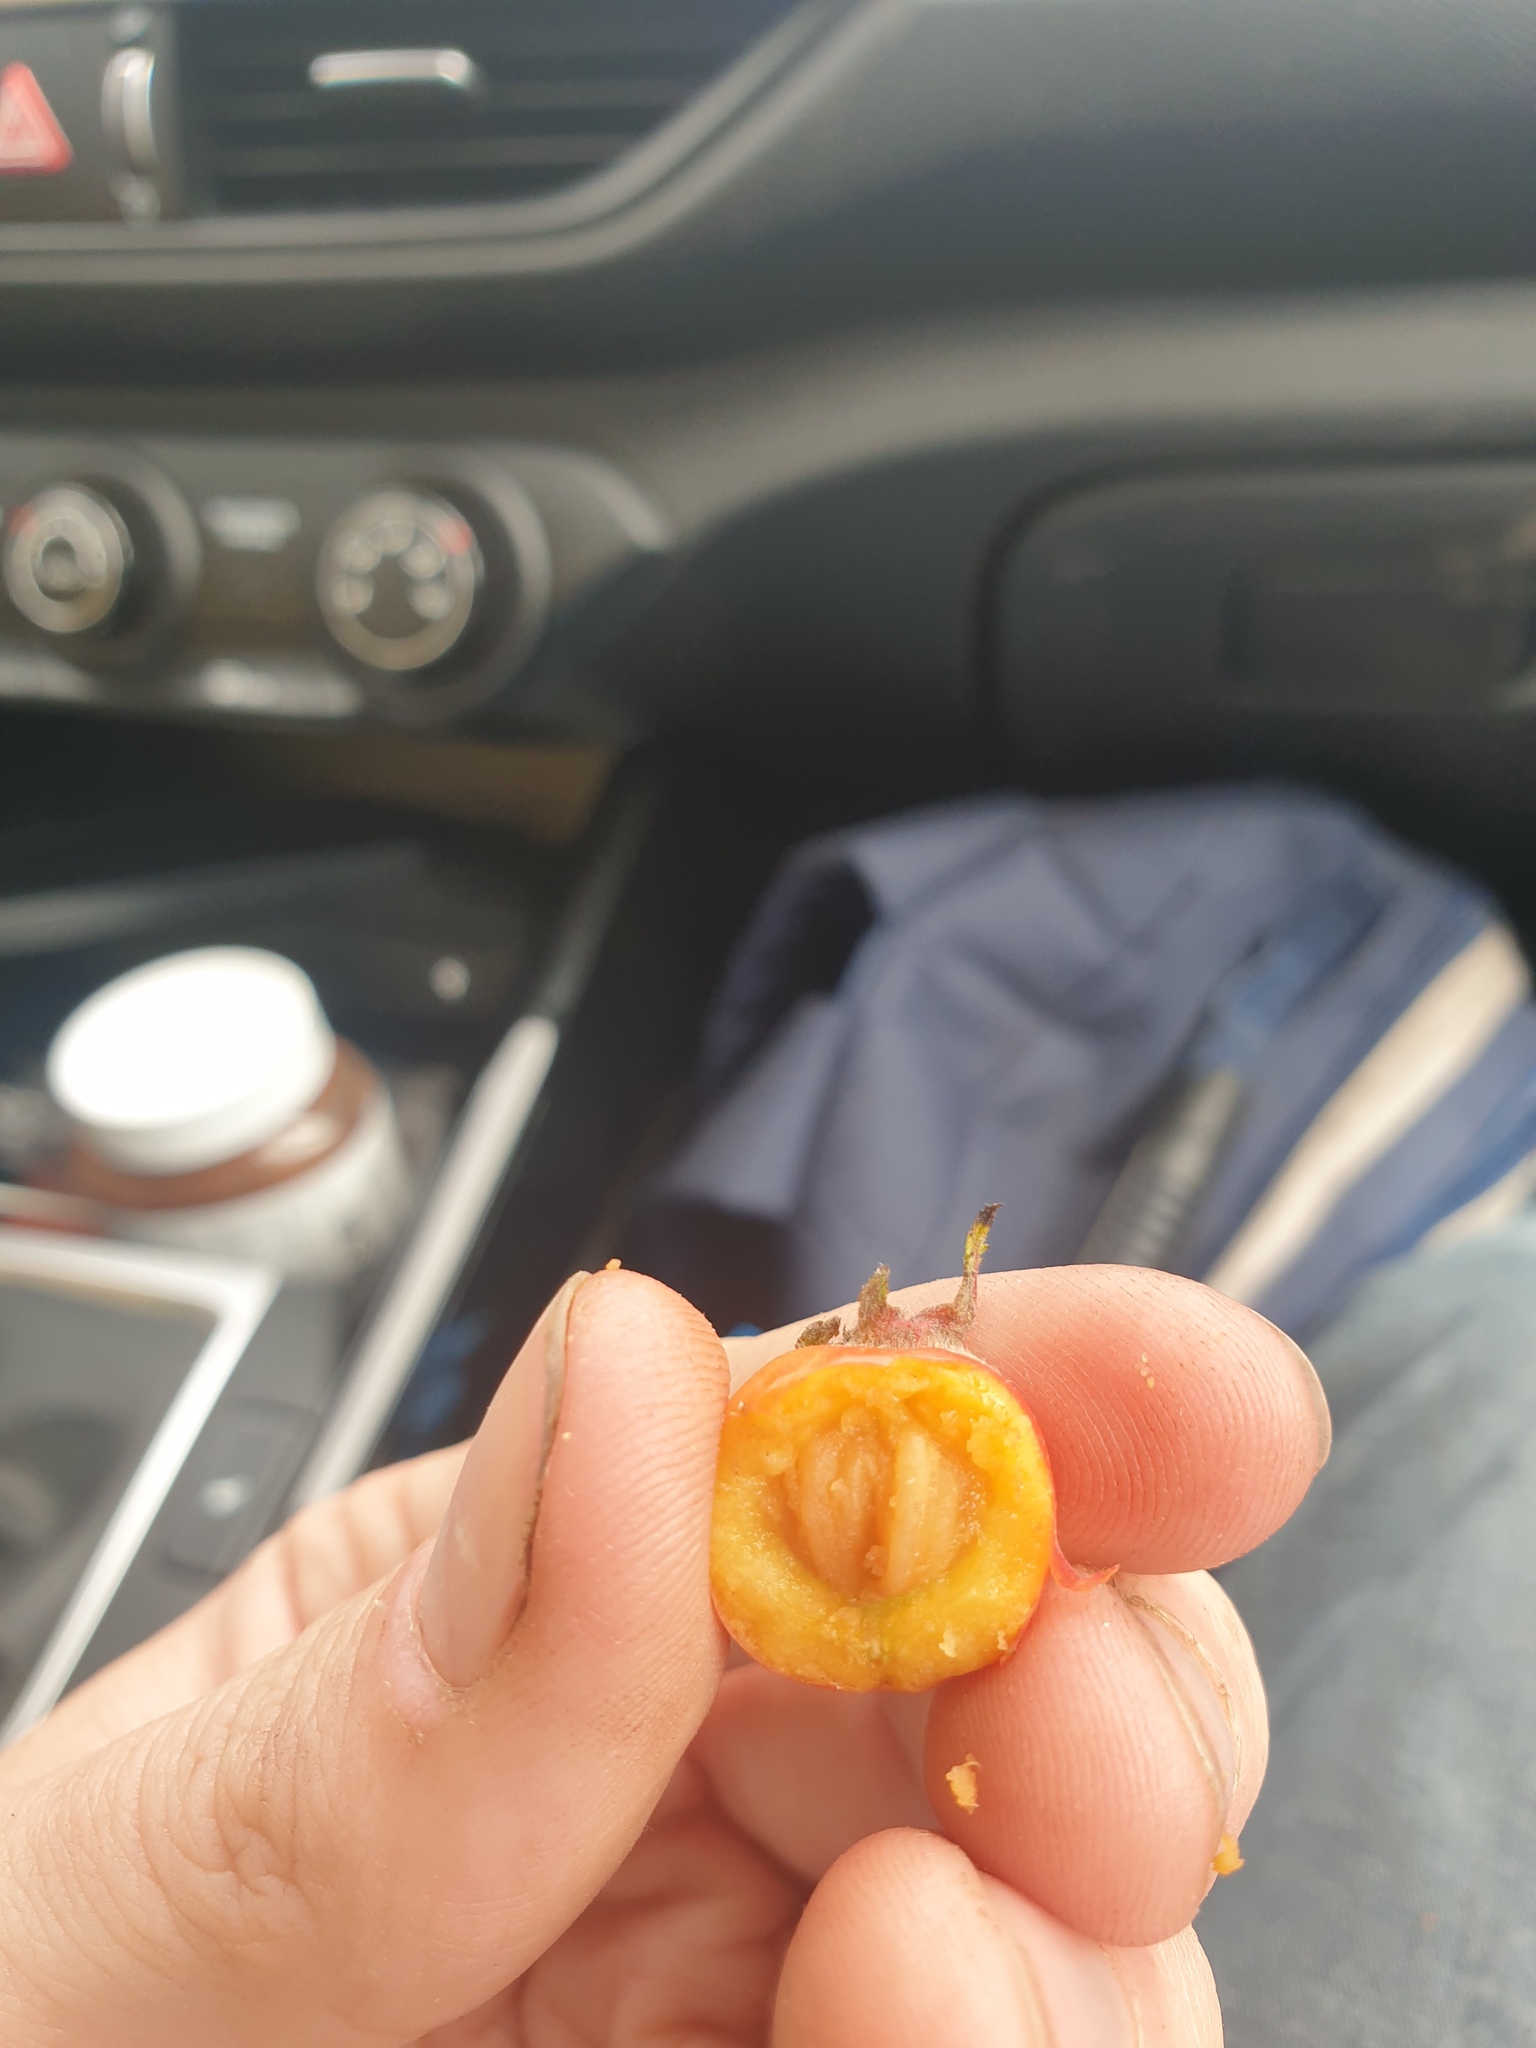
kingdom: Plantae
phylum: Tracheophyta
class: Magnoliopsida
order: Rosales
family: Rosaceae
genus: Crataegus
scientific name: Crataegus submollis
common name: Hairy cockspurthorn
